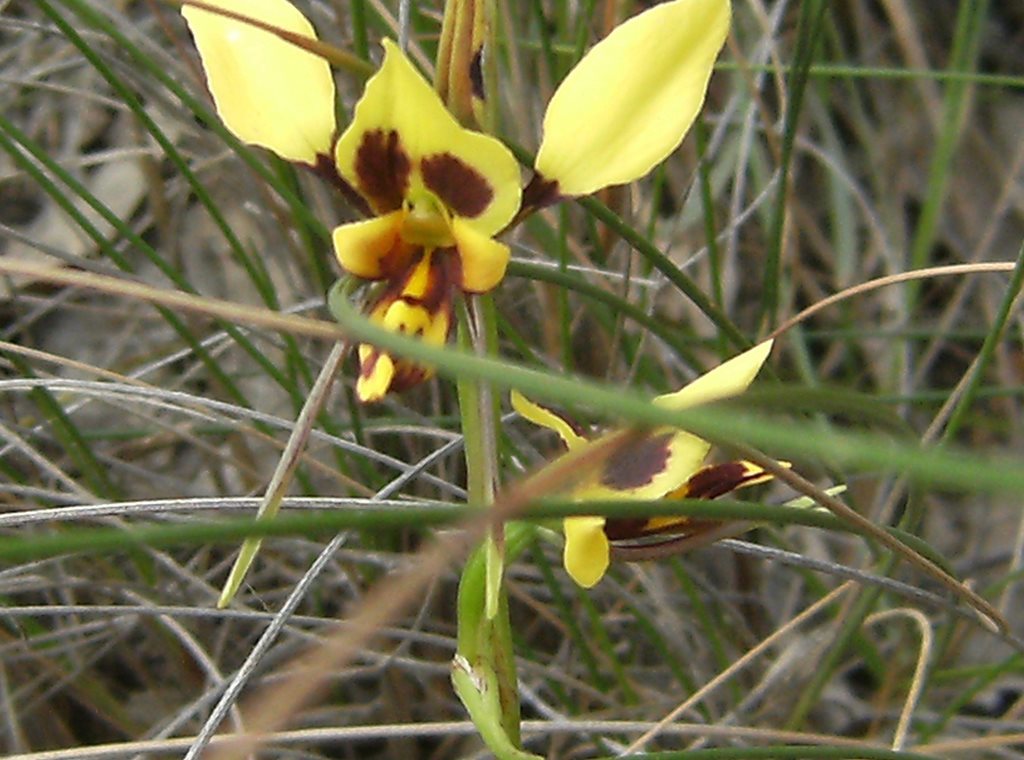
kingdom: Plantae
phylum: Tracheophyta
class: Liliopsida
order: Asparagales
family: Orchidaceae
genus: Diuris
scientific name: Diuris sulphurea
